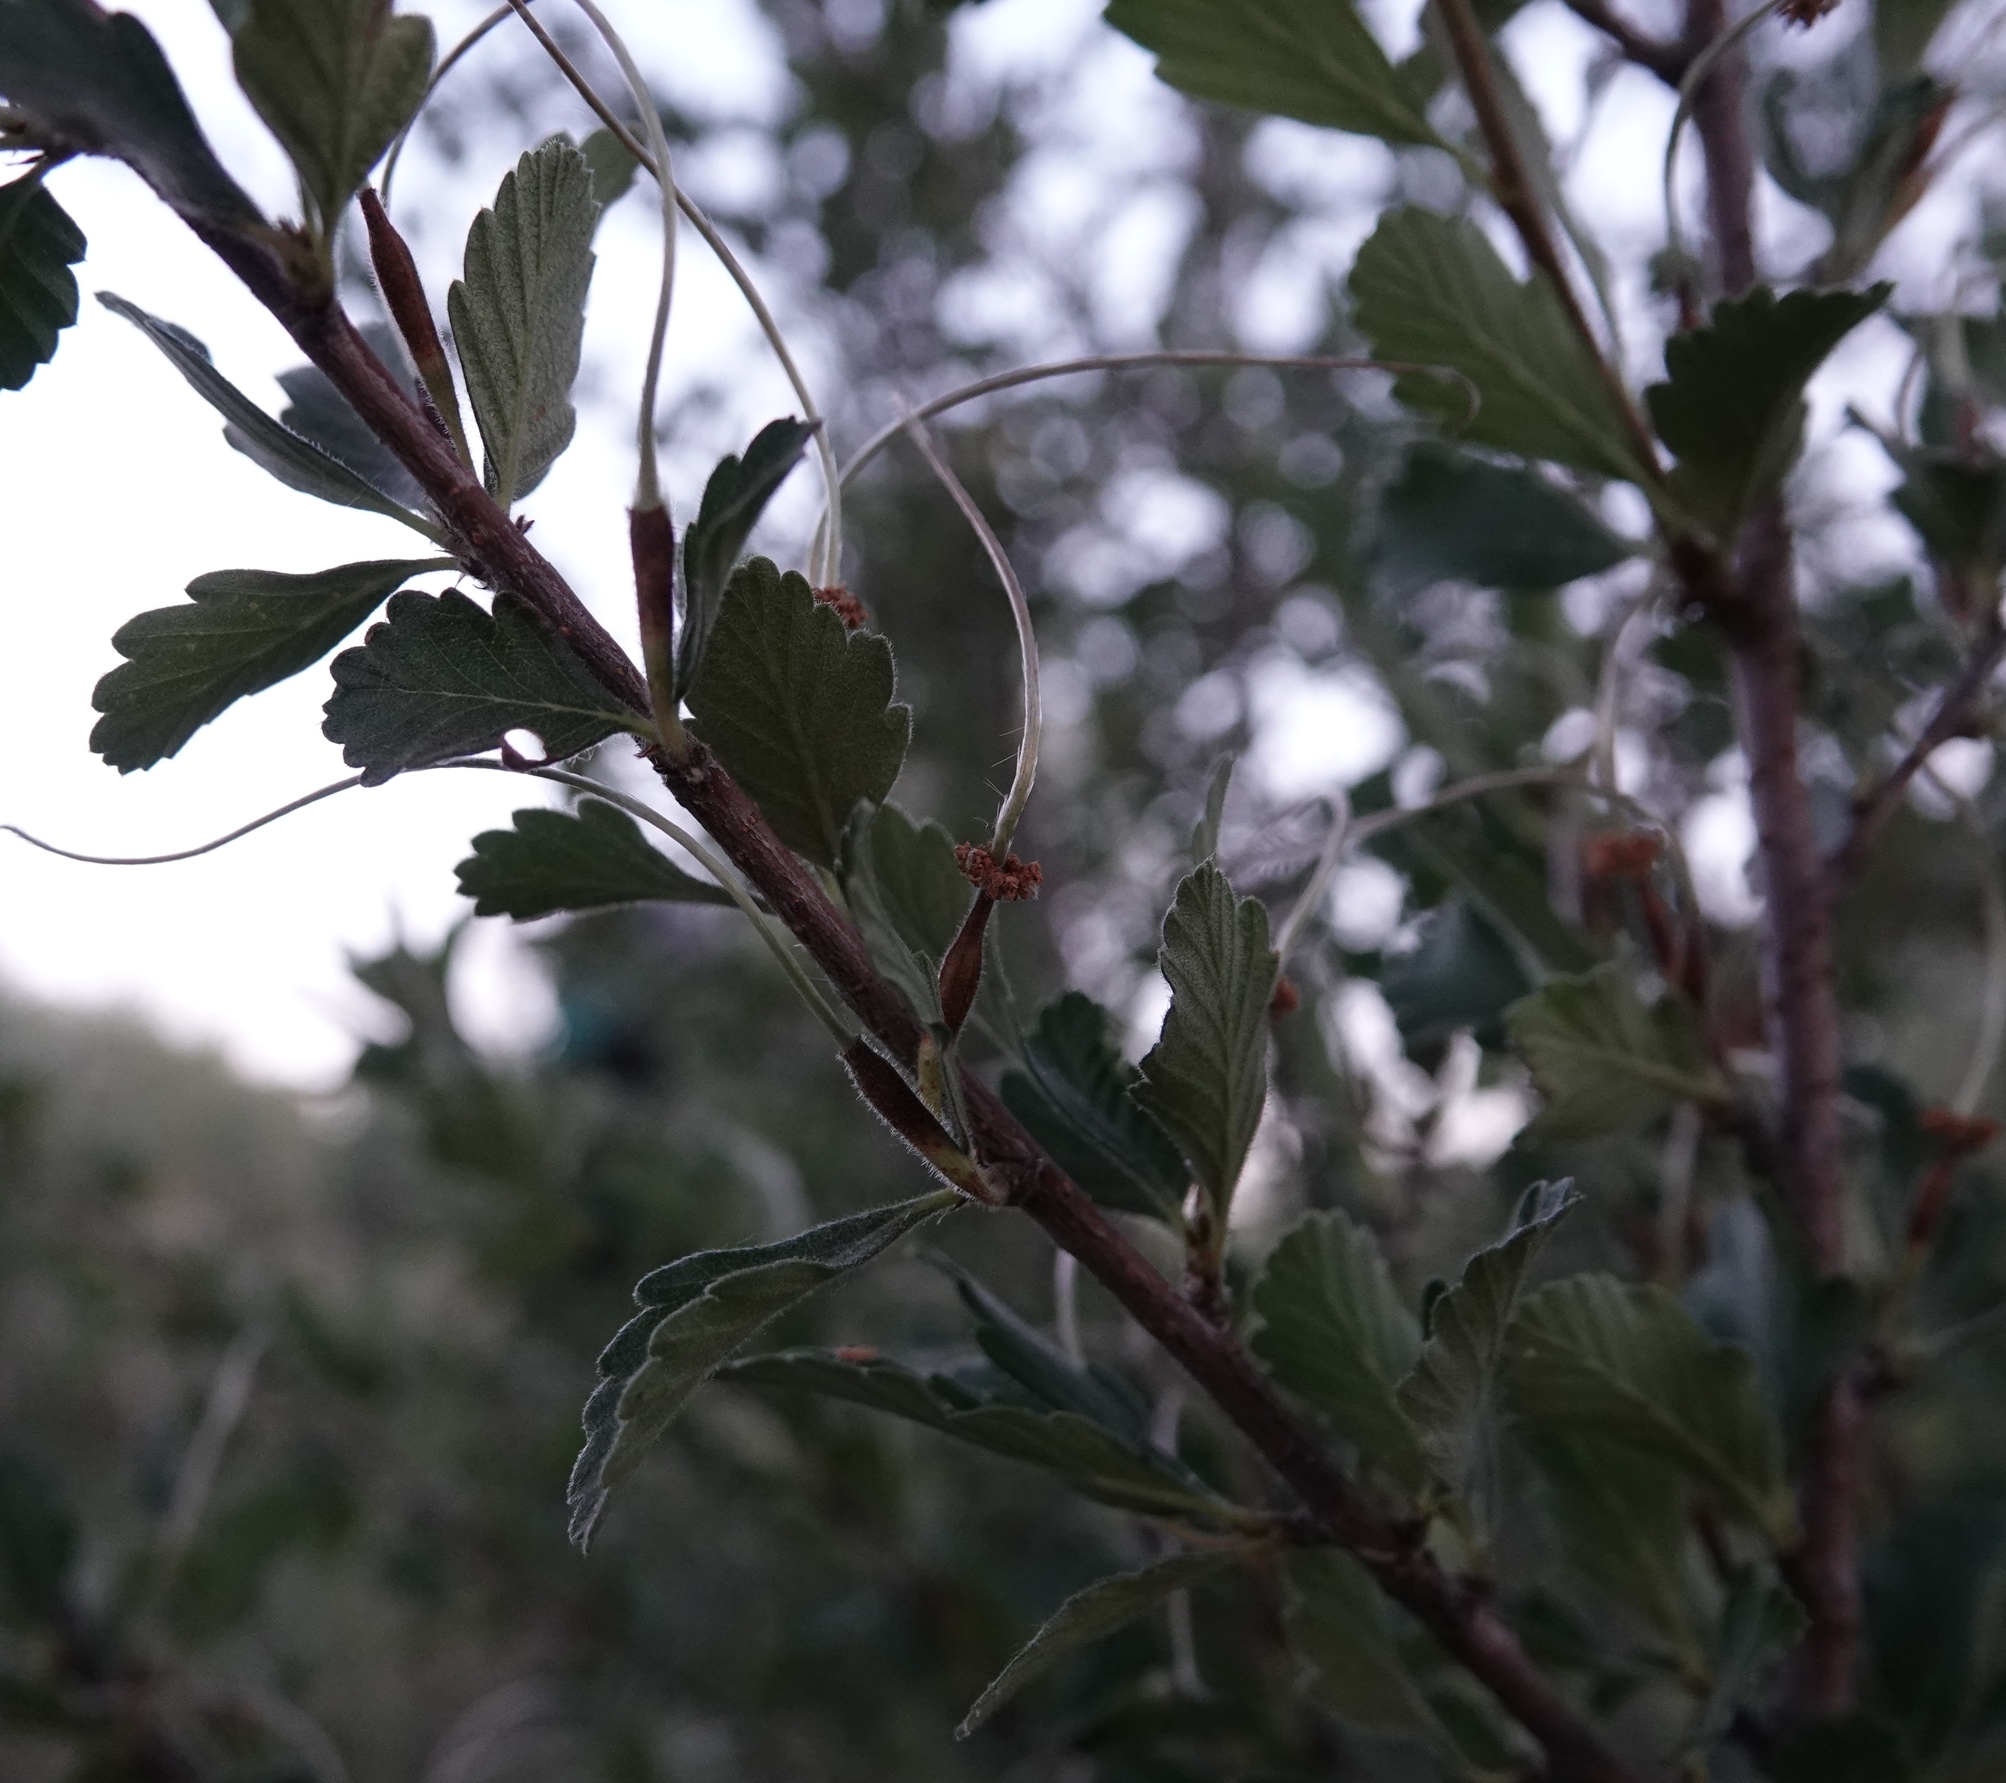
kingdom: Plantae
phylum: Tracheophyta
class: Magnoliopsida
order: Rosales
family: Rosaceae
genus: Cercocarpus
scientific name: Cercocarpus montanus
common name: Alder-leaf cercocarpus
